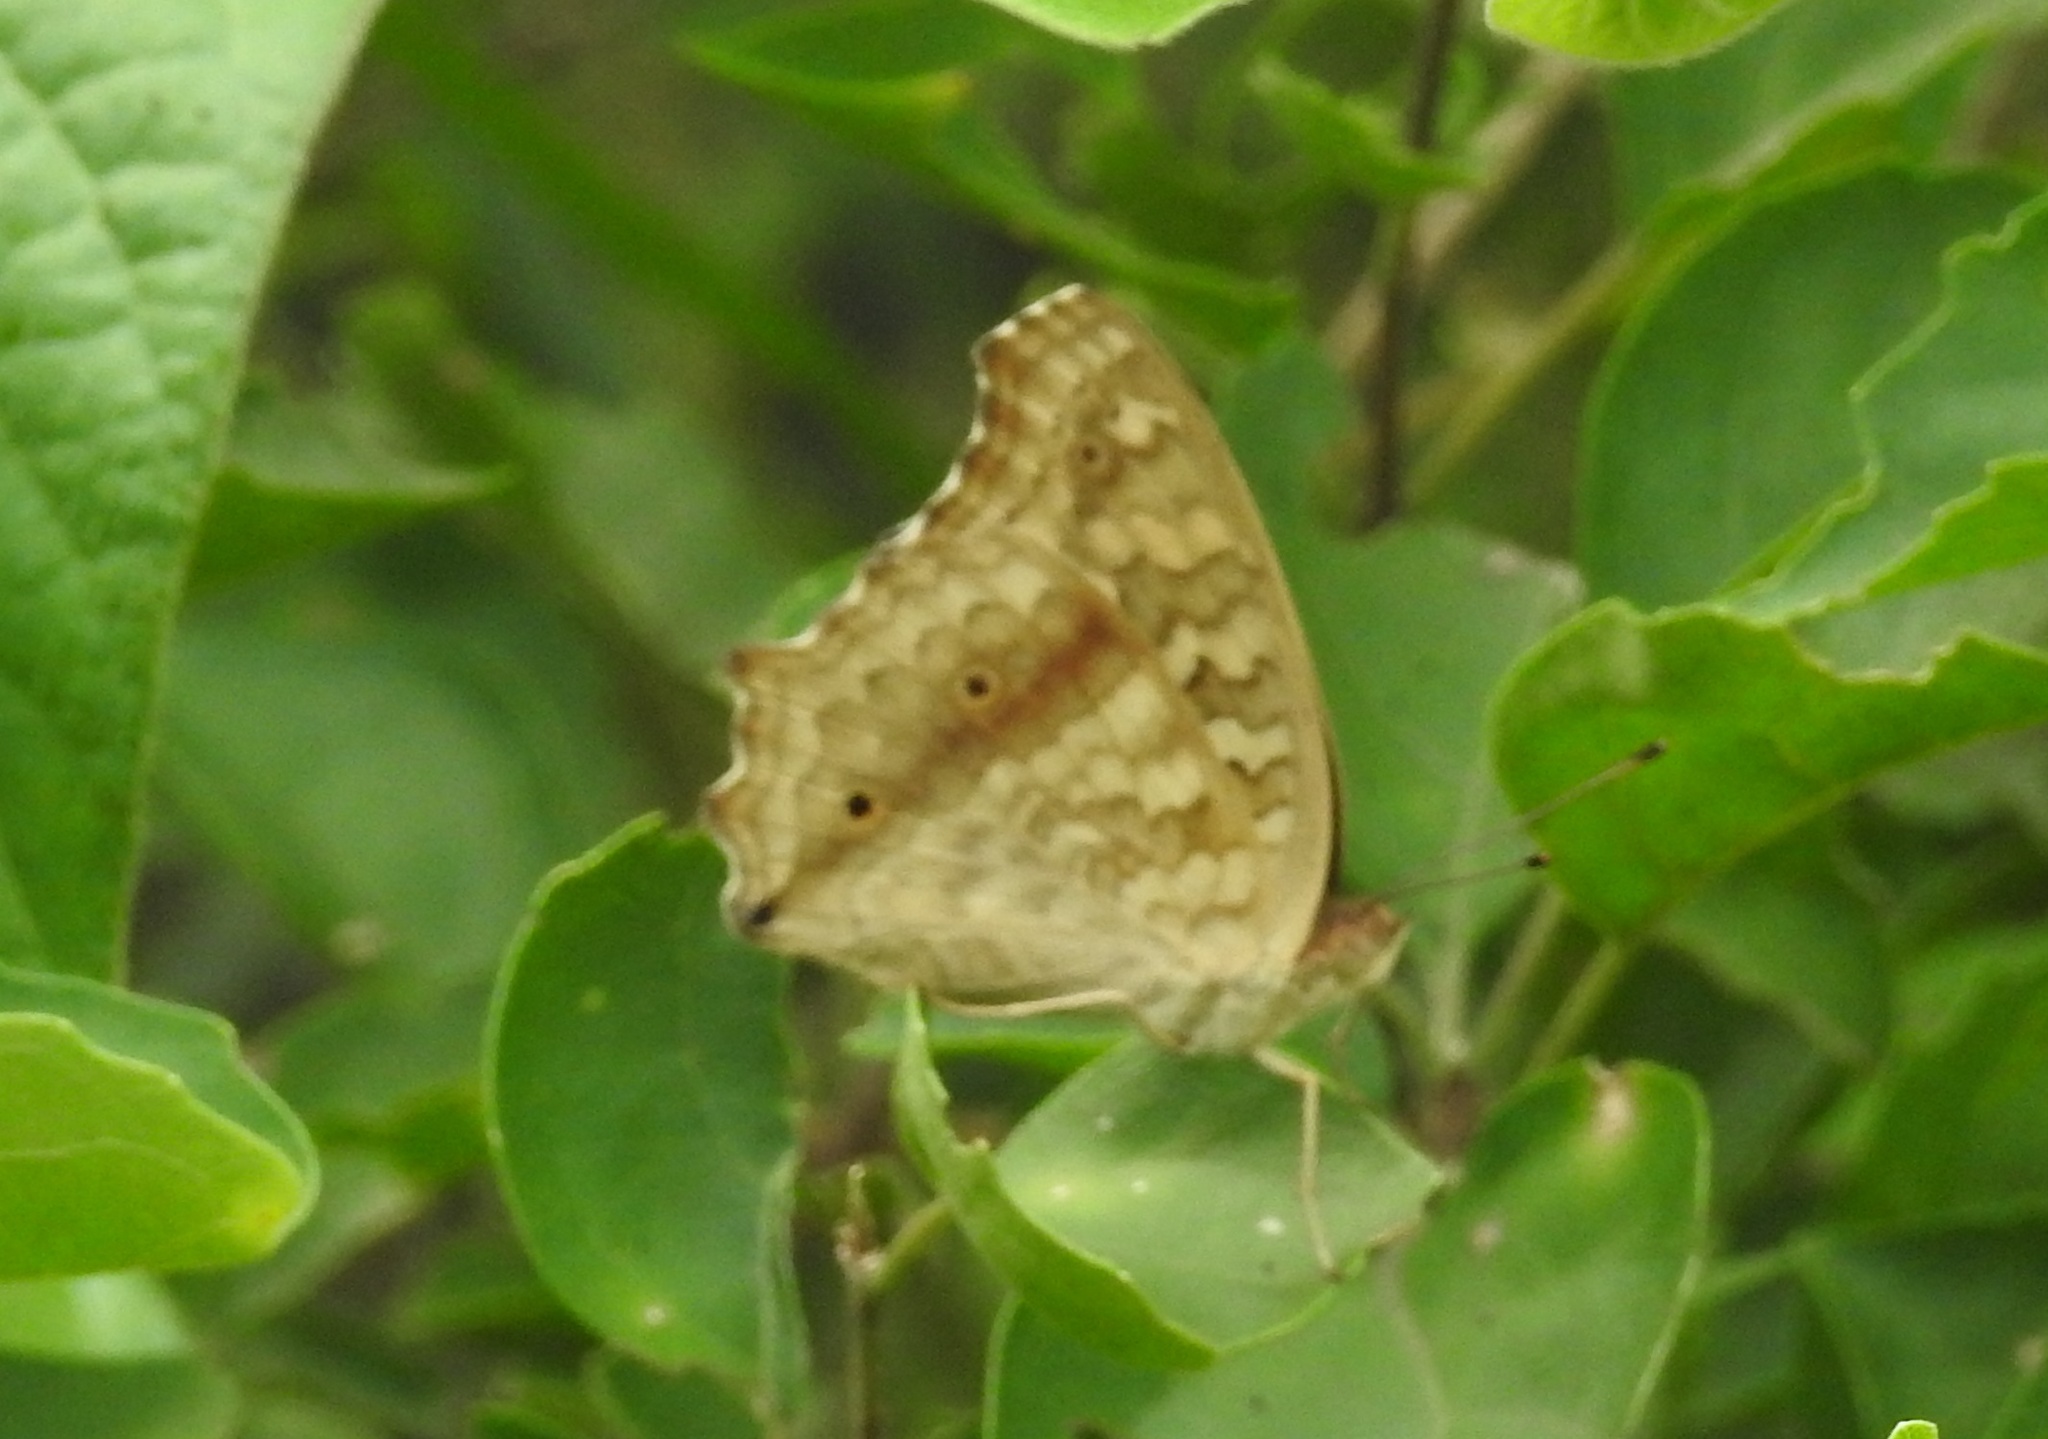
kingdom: Animalia
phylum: Arthropoda
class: Insecta
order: Lepidoptera
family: Nymphalidae
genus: Junonia
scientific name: Junonia lemonias
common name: Lemon pansy
